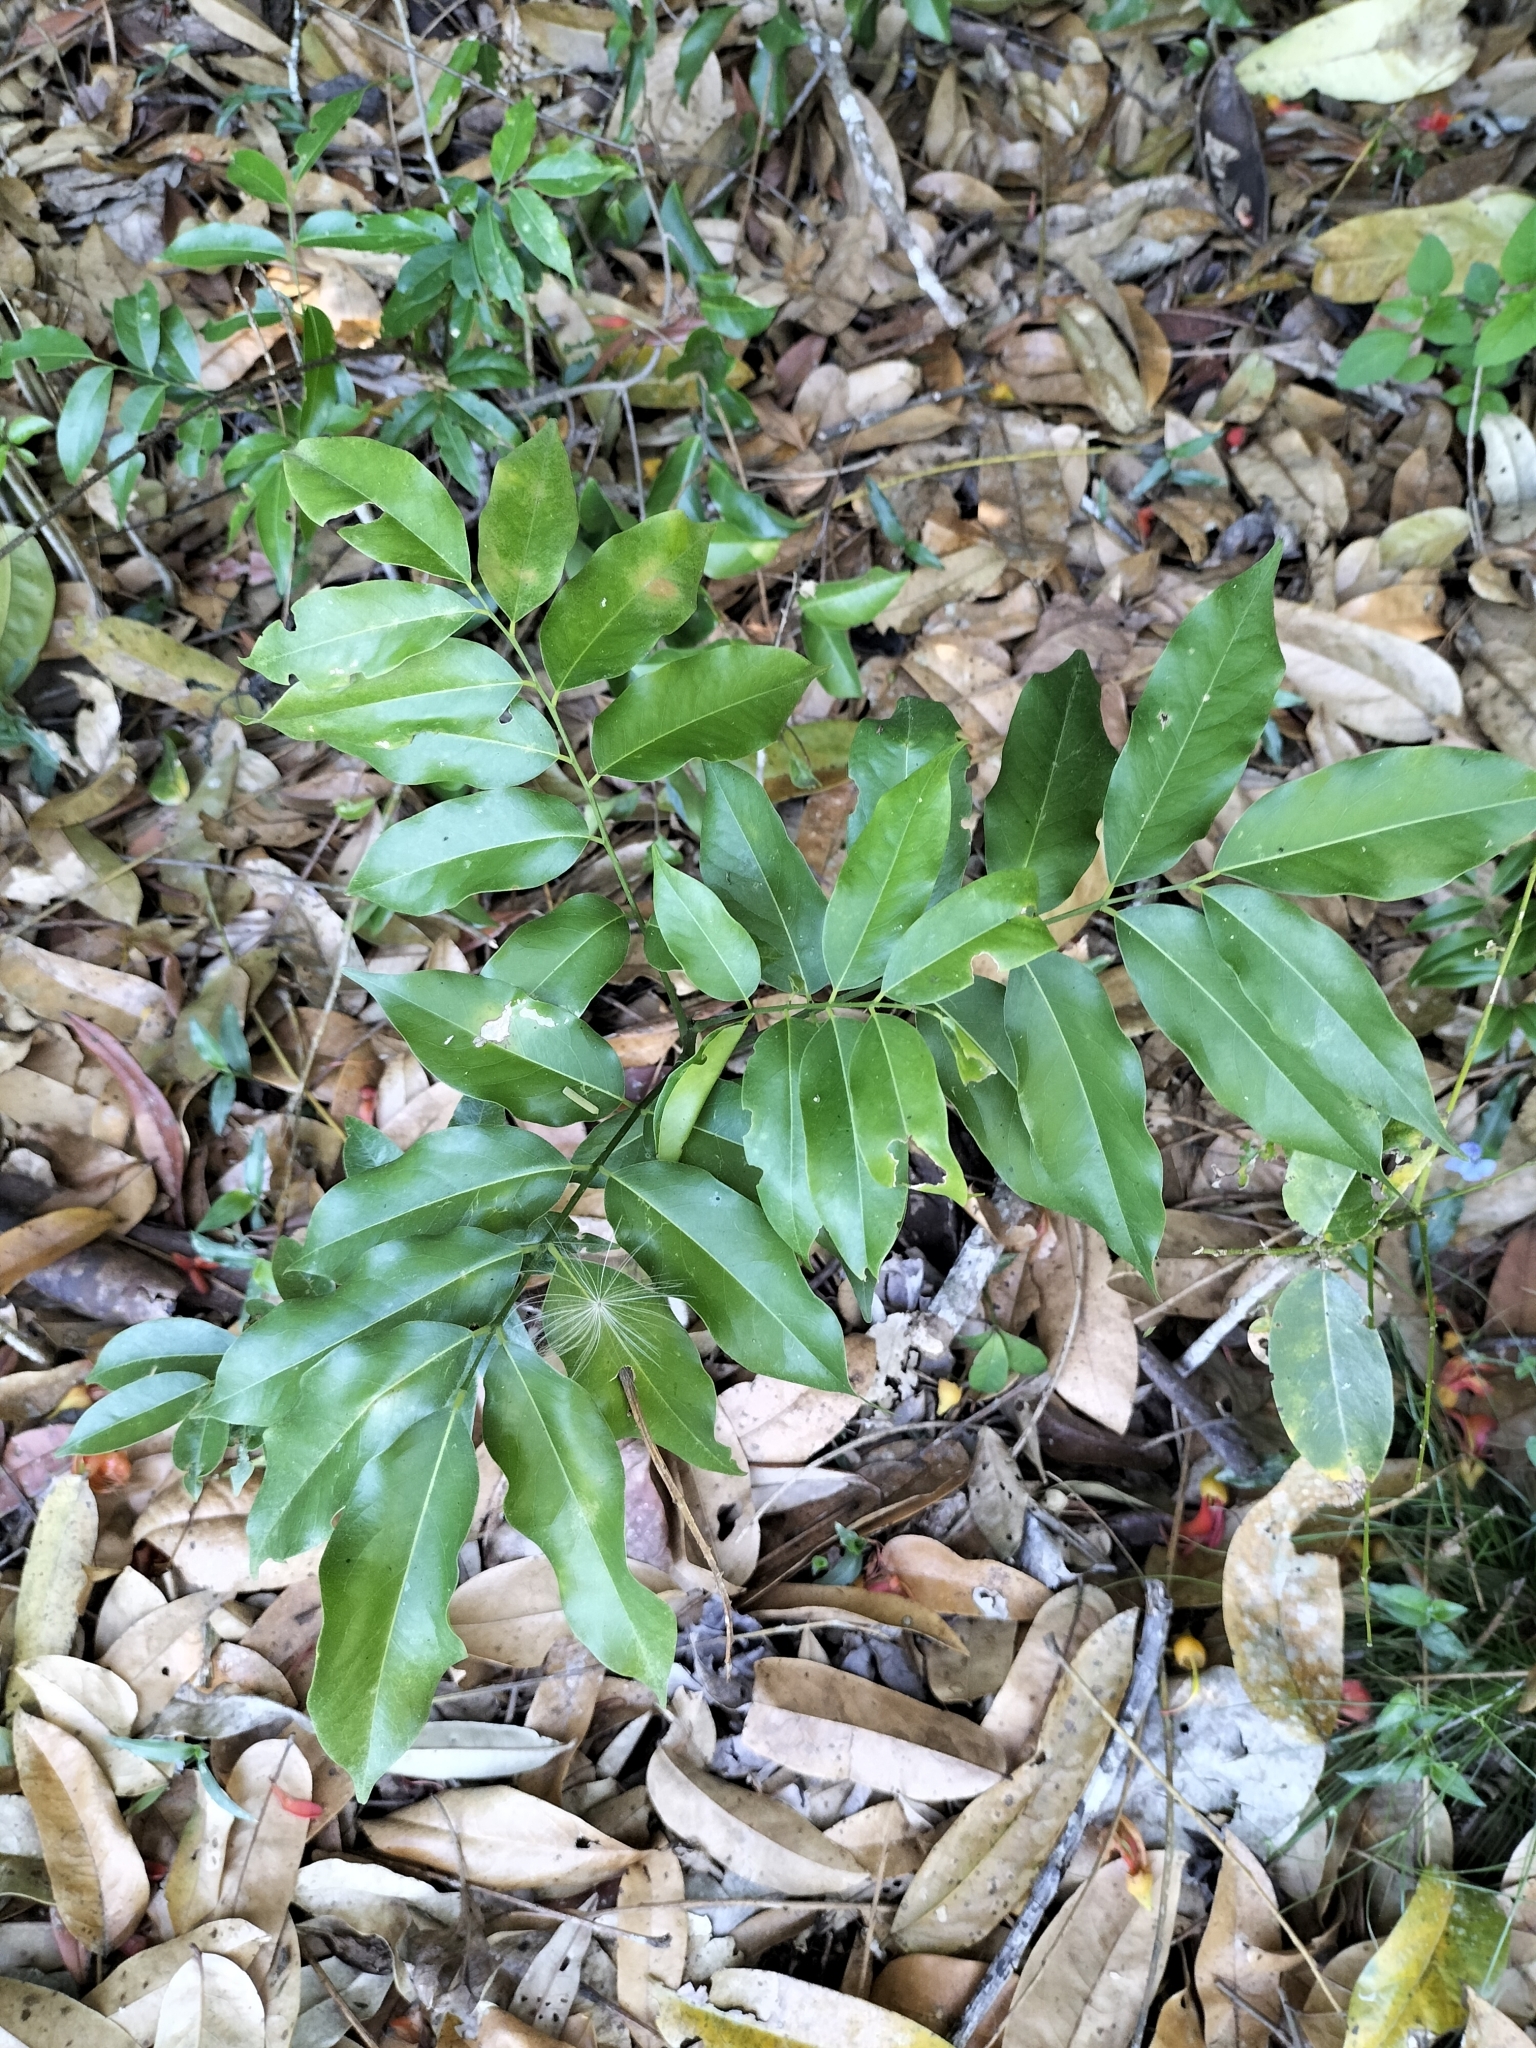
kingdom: Plantae
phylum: Tracheophyta
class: Magnoliopsida
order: Fabales
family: Fabaceae
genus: Castanospermum
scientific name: Castanospermum australe
